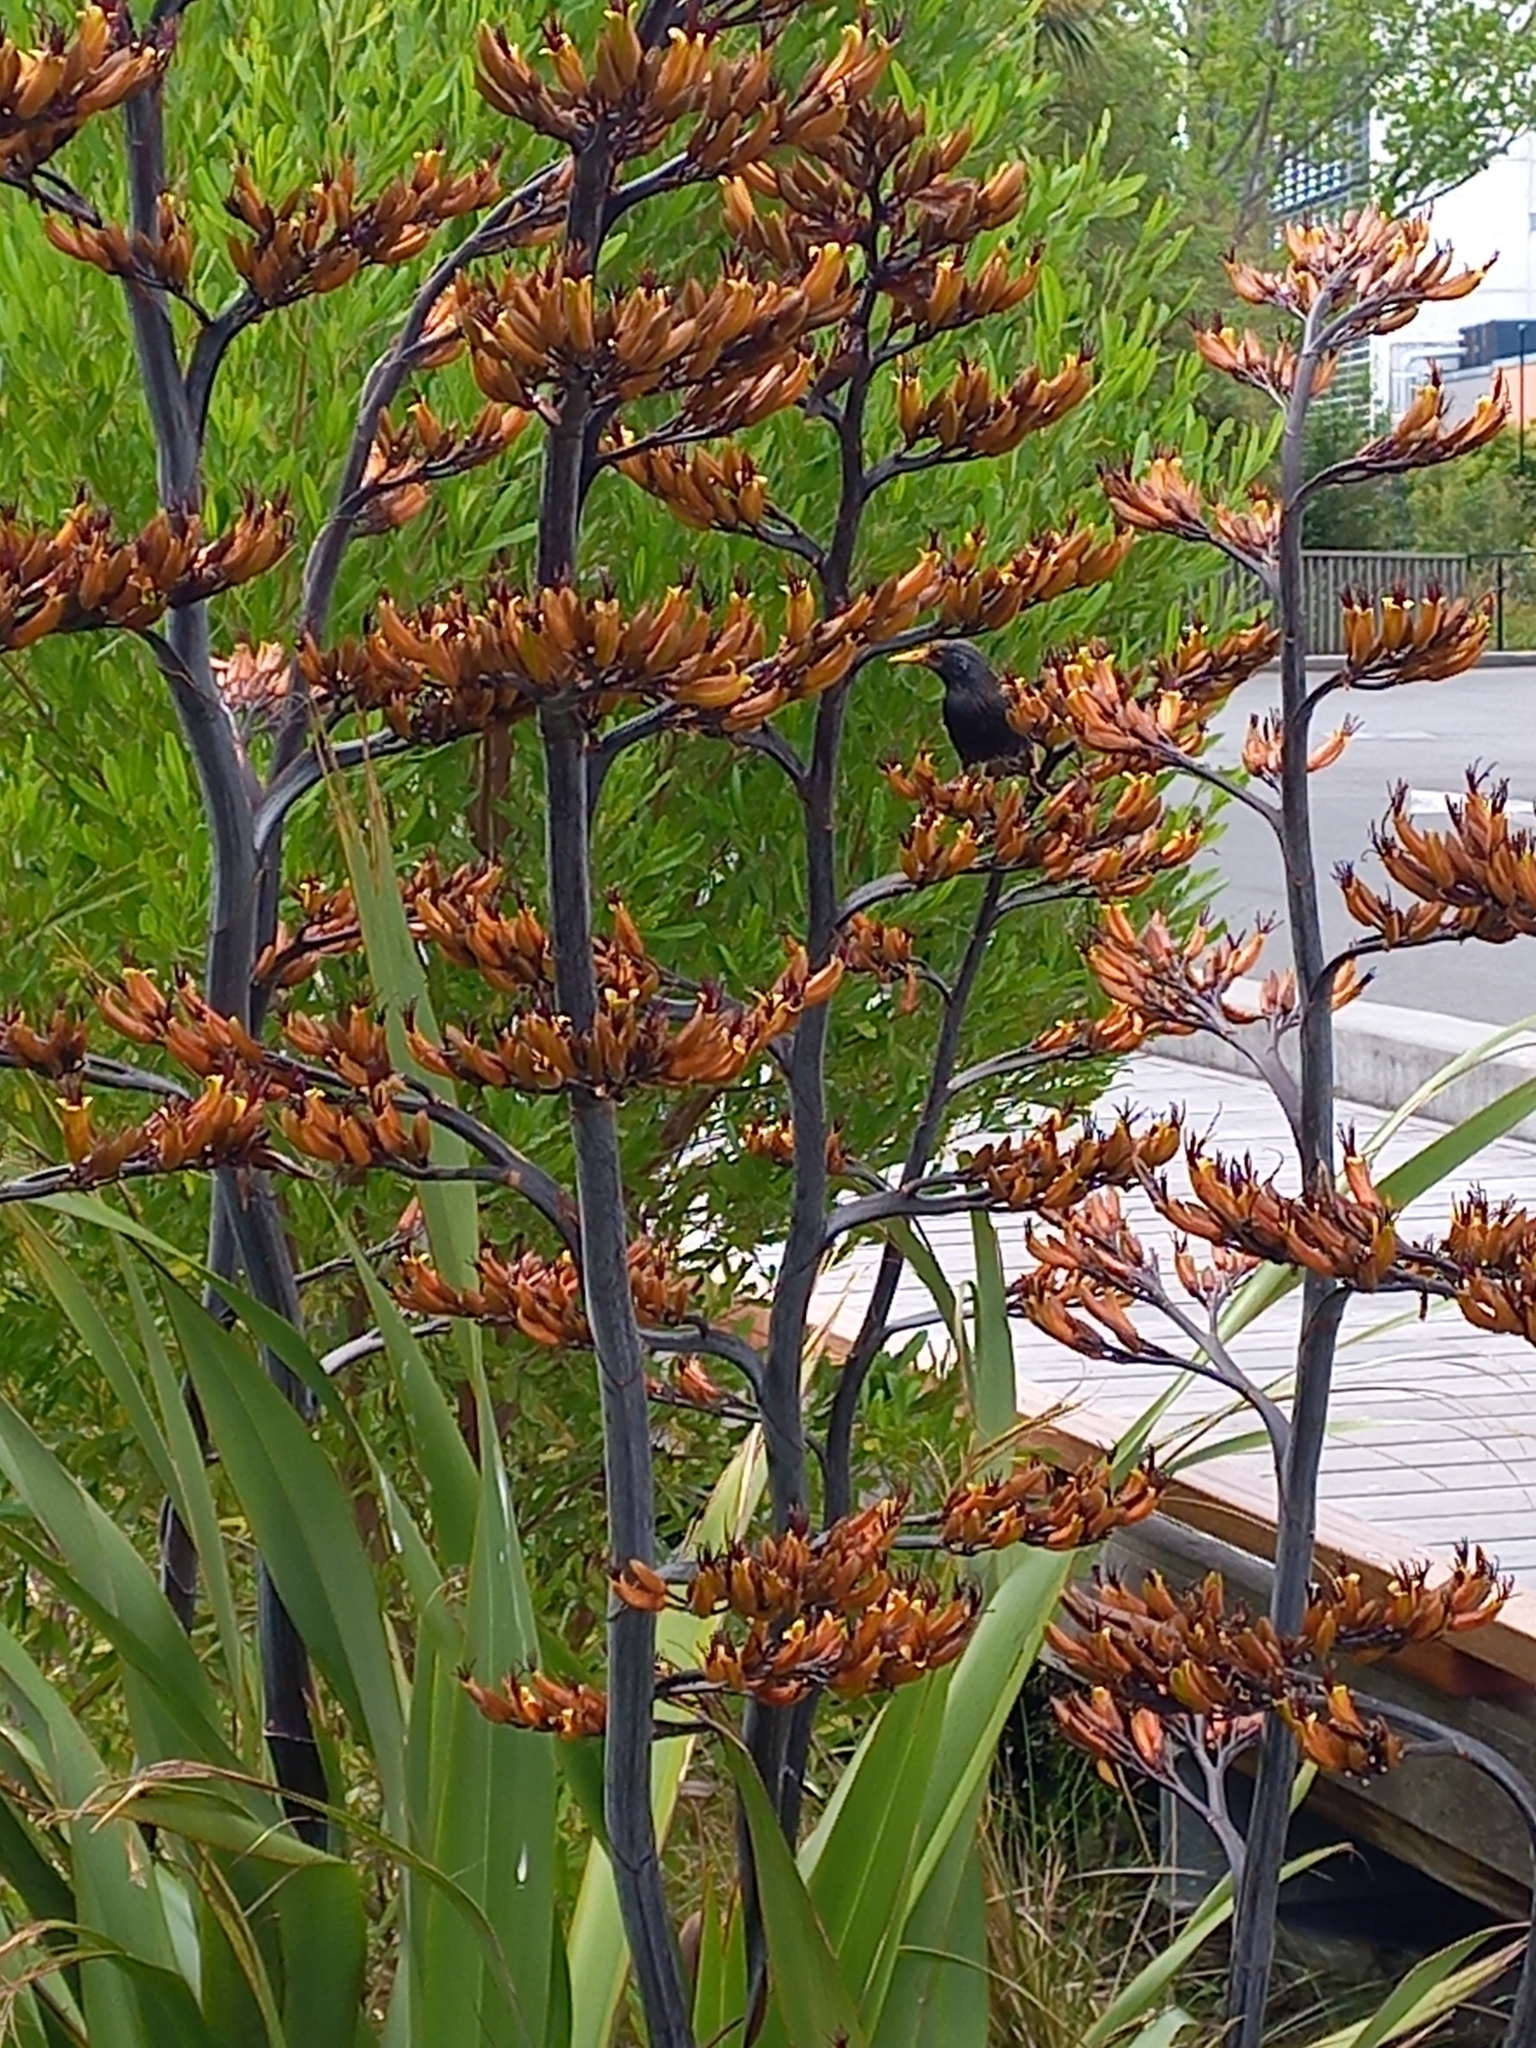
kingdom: Animalia
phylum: Chordata
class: Aves
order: Passeriformes
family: Sturnidae
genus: Sturnus
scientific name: Sturnus vulgaris
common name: Common starling
